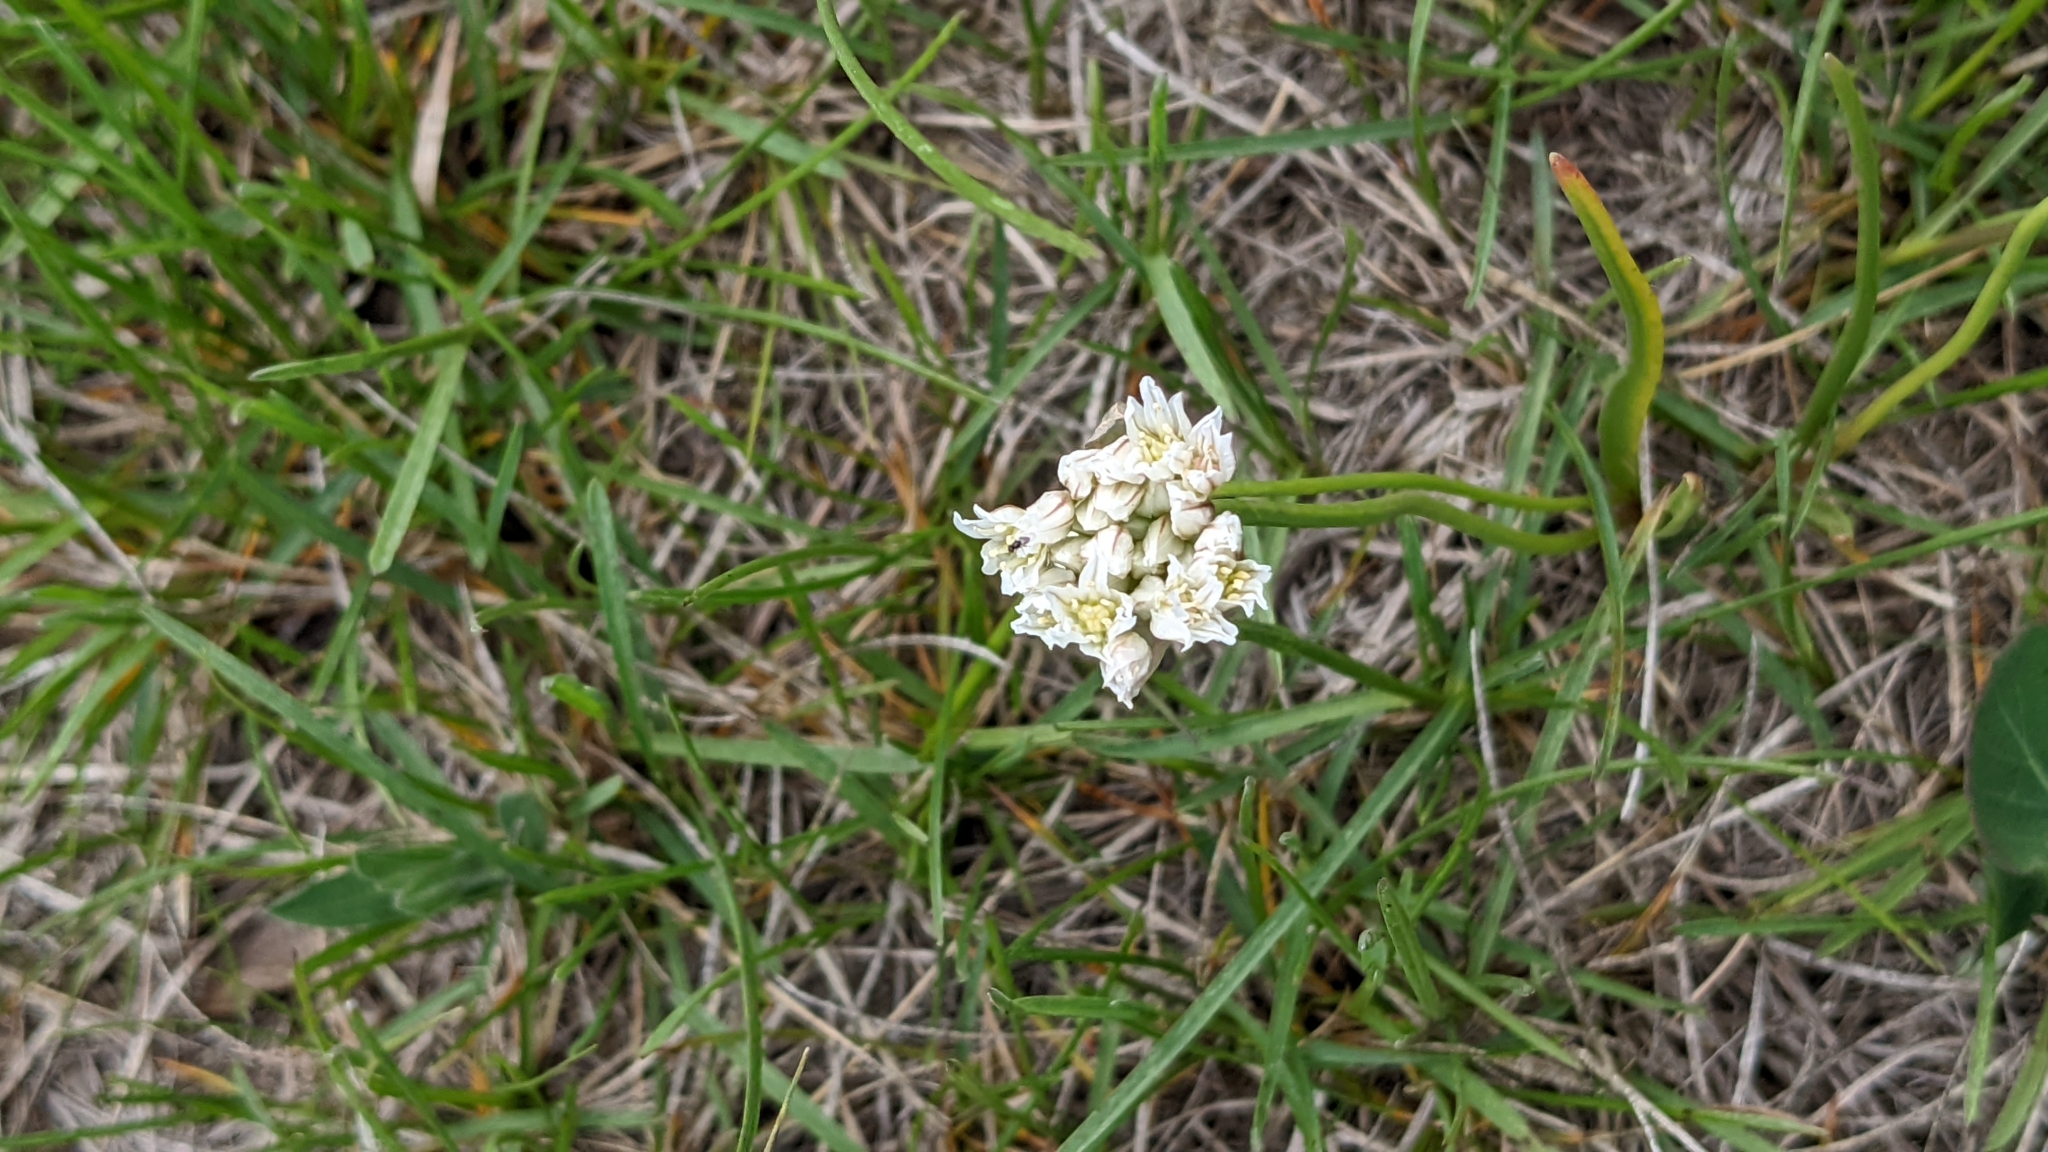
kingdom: Plantae
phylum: Tracheophyta
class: Liliopsida
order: Asparagales
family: Amaryllidaceae
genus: Allium
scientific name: Allium textile
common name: Prairie onion
